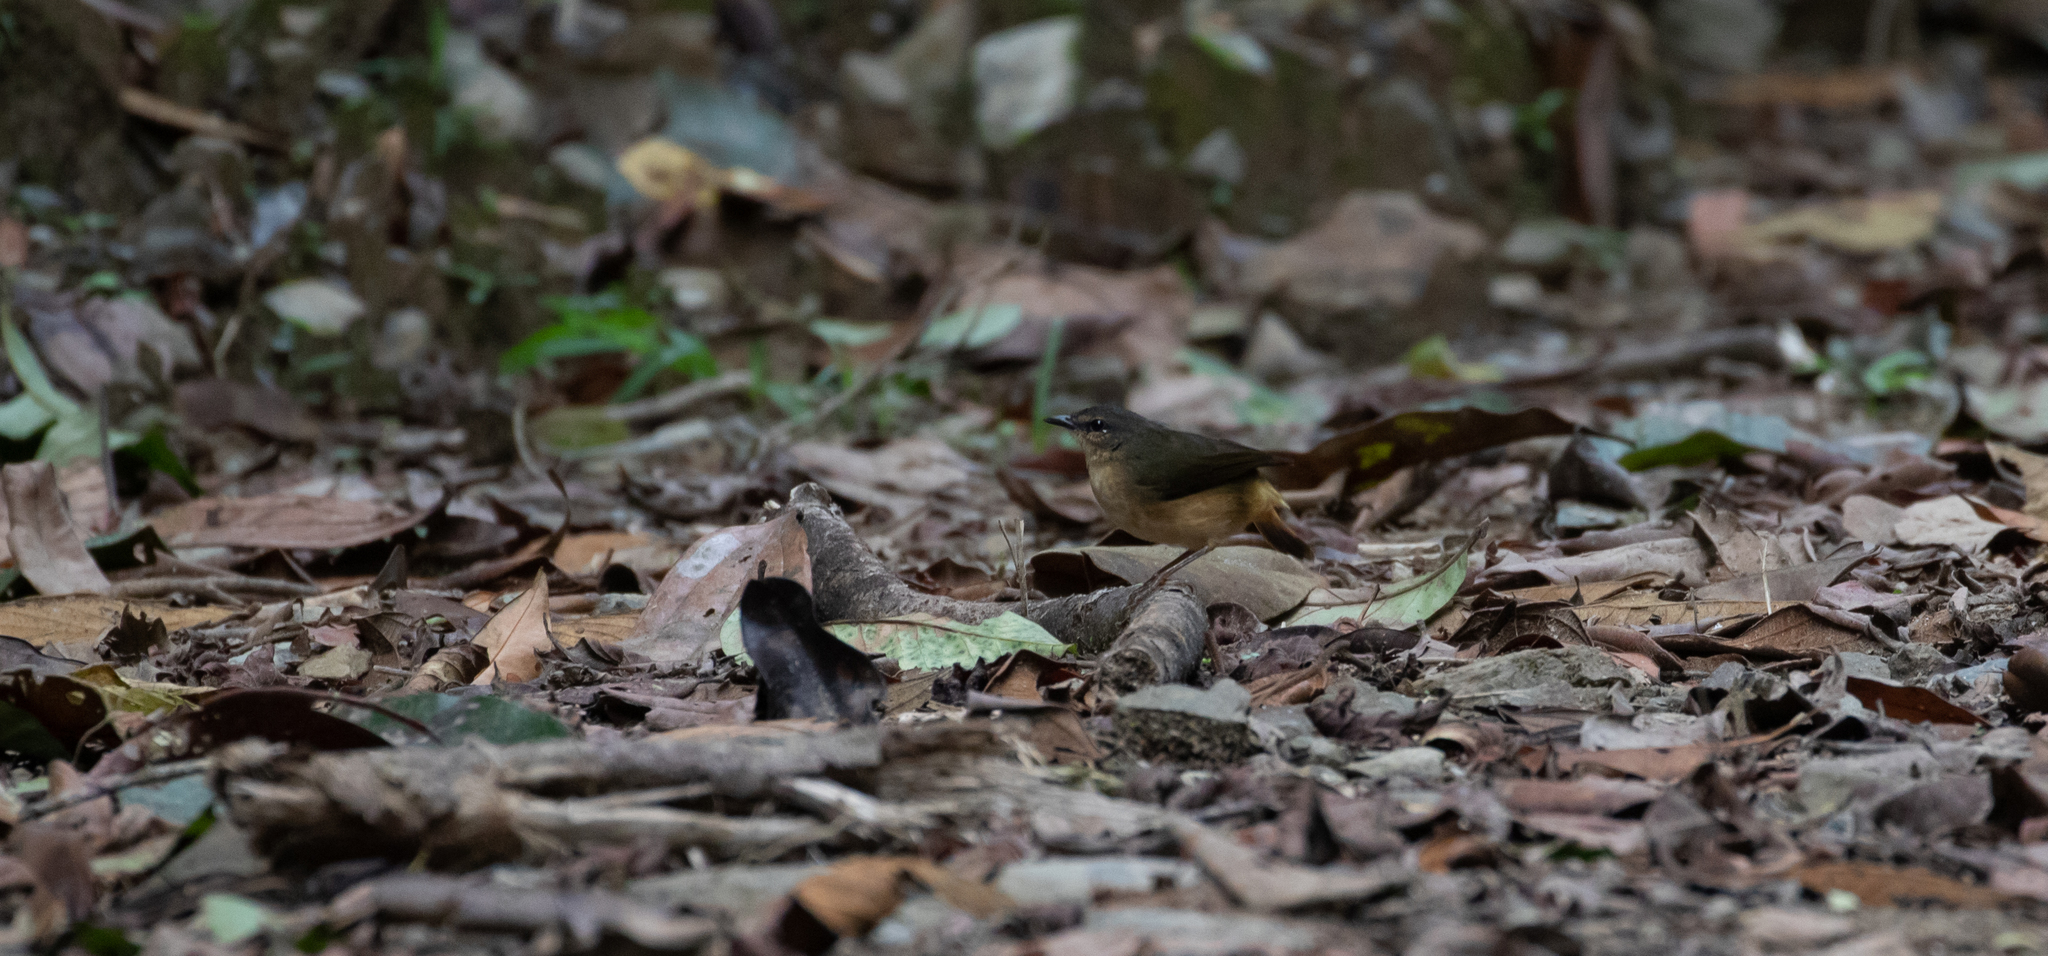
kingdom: Animalia
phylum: Chordata
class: Aves
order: Passeriformes
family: Parulidae
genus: Myiothlypis
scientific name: Myiothlypis fulvicauda
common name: Buff-rumped warbler
